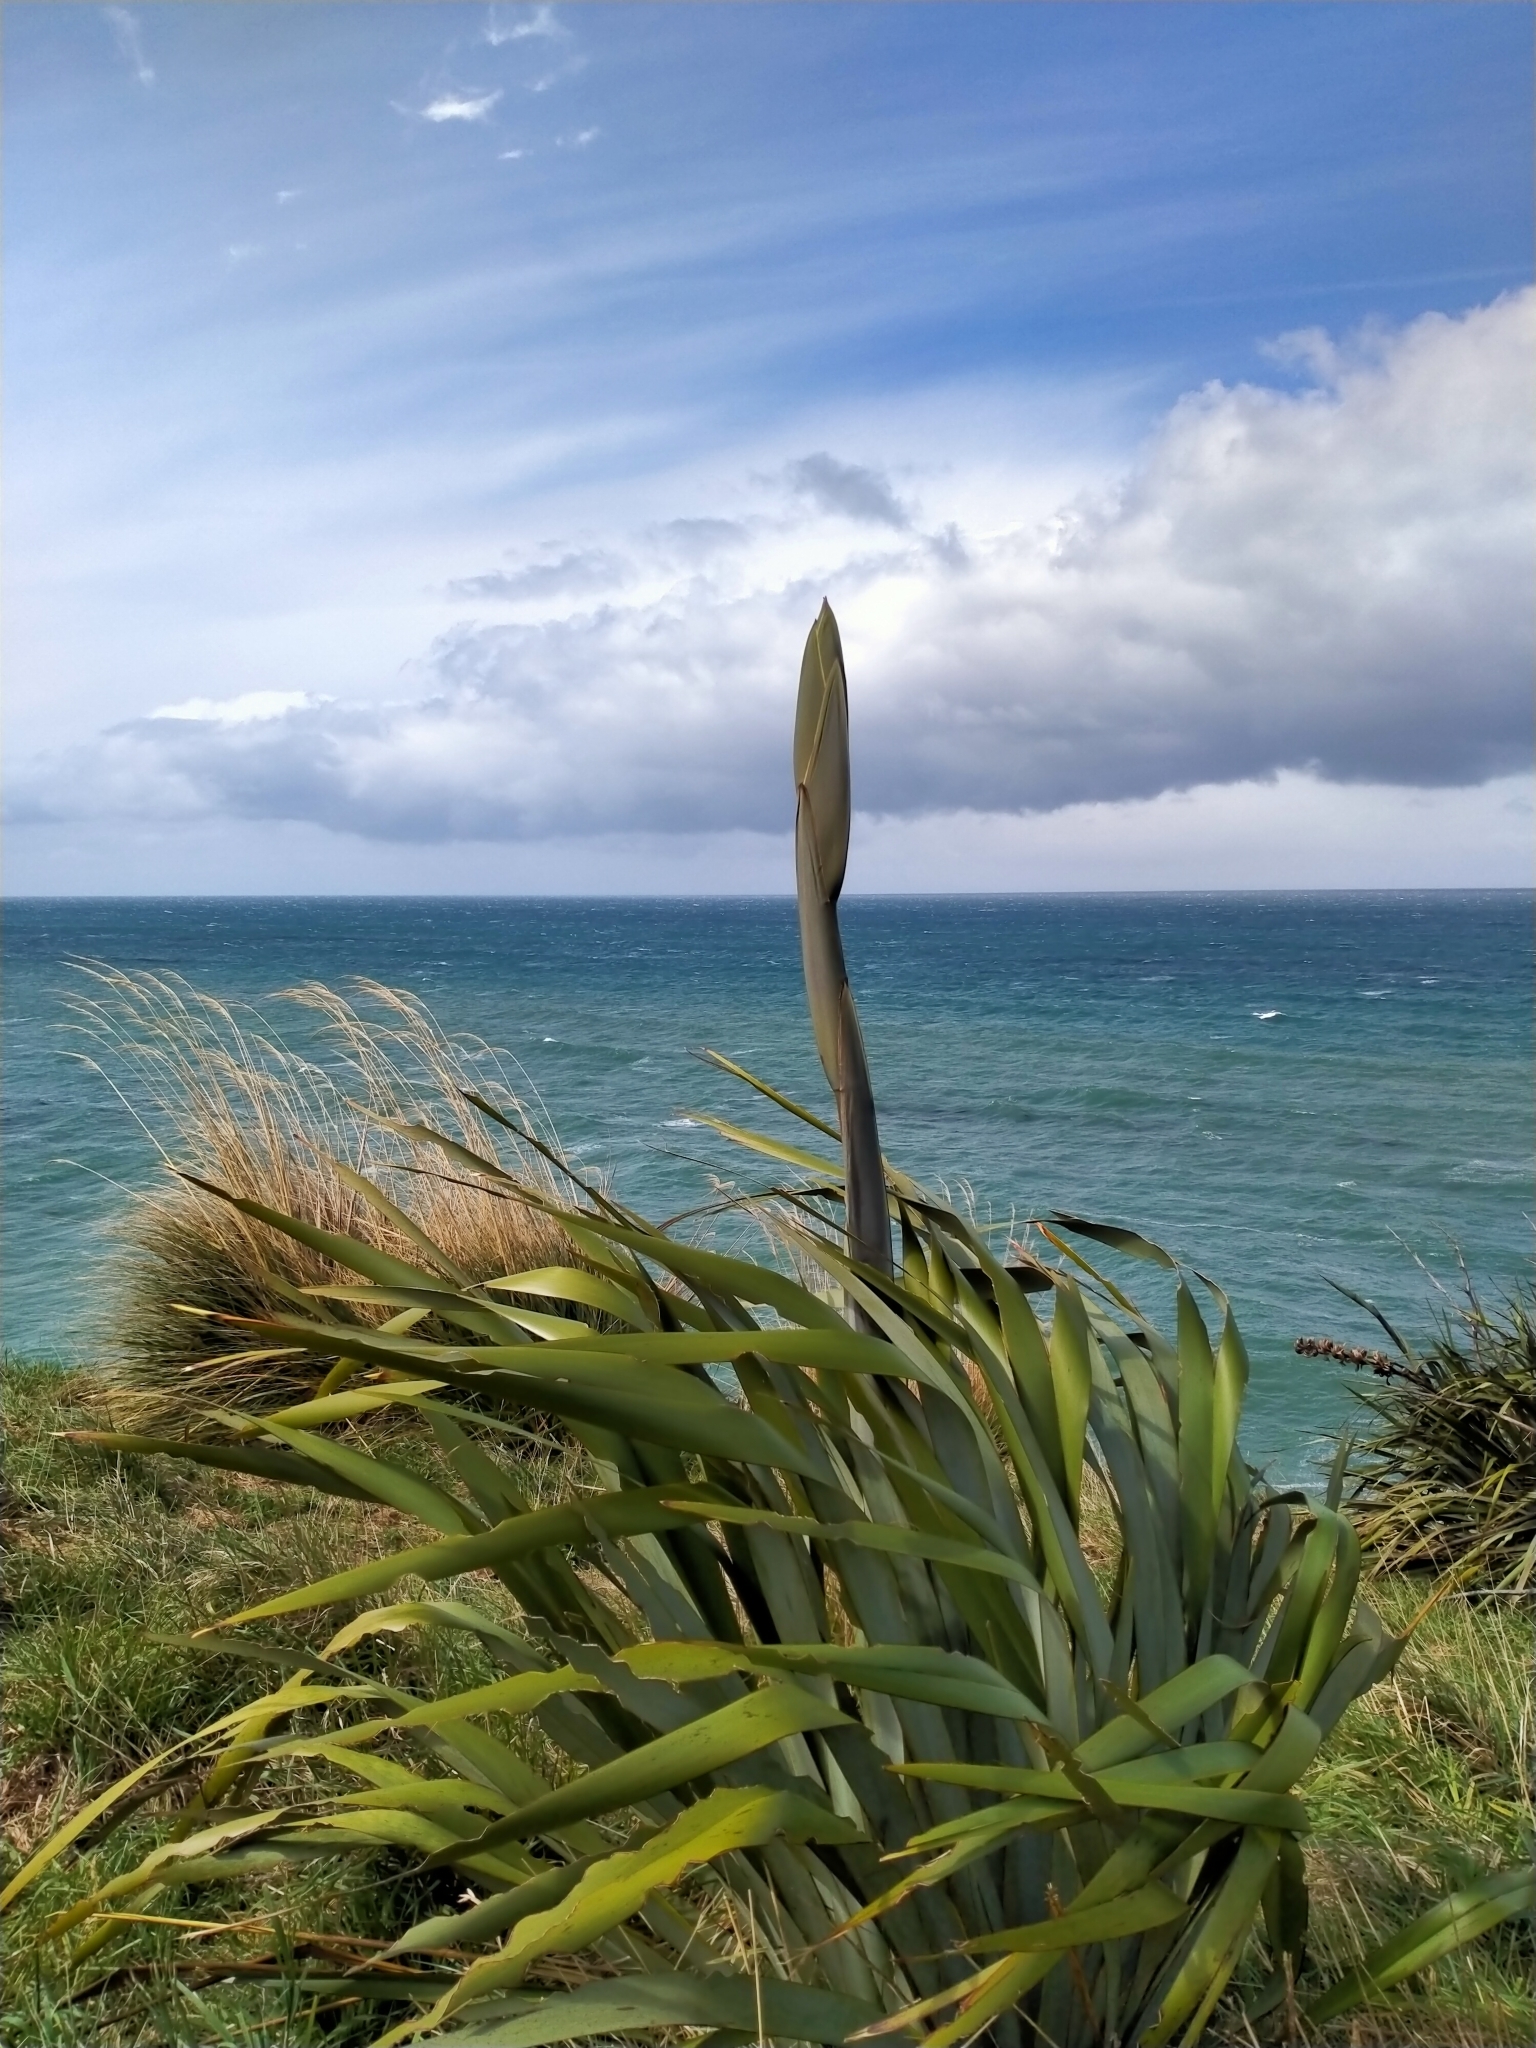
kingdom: Plantae
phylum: Tracheophyta
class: Liliopsida
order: Asparagales
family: Asphodelaceae
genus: Phormium
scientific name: Phormium tenax
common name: New zealand flax
